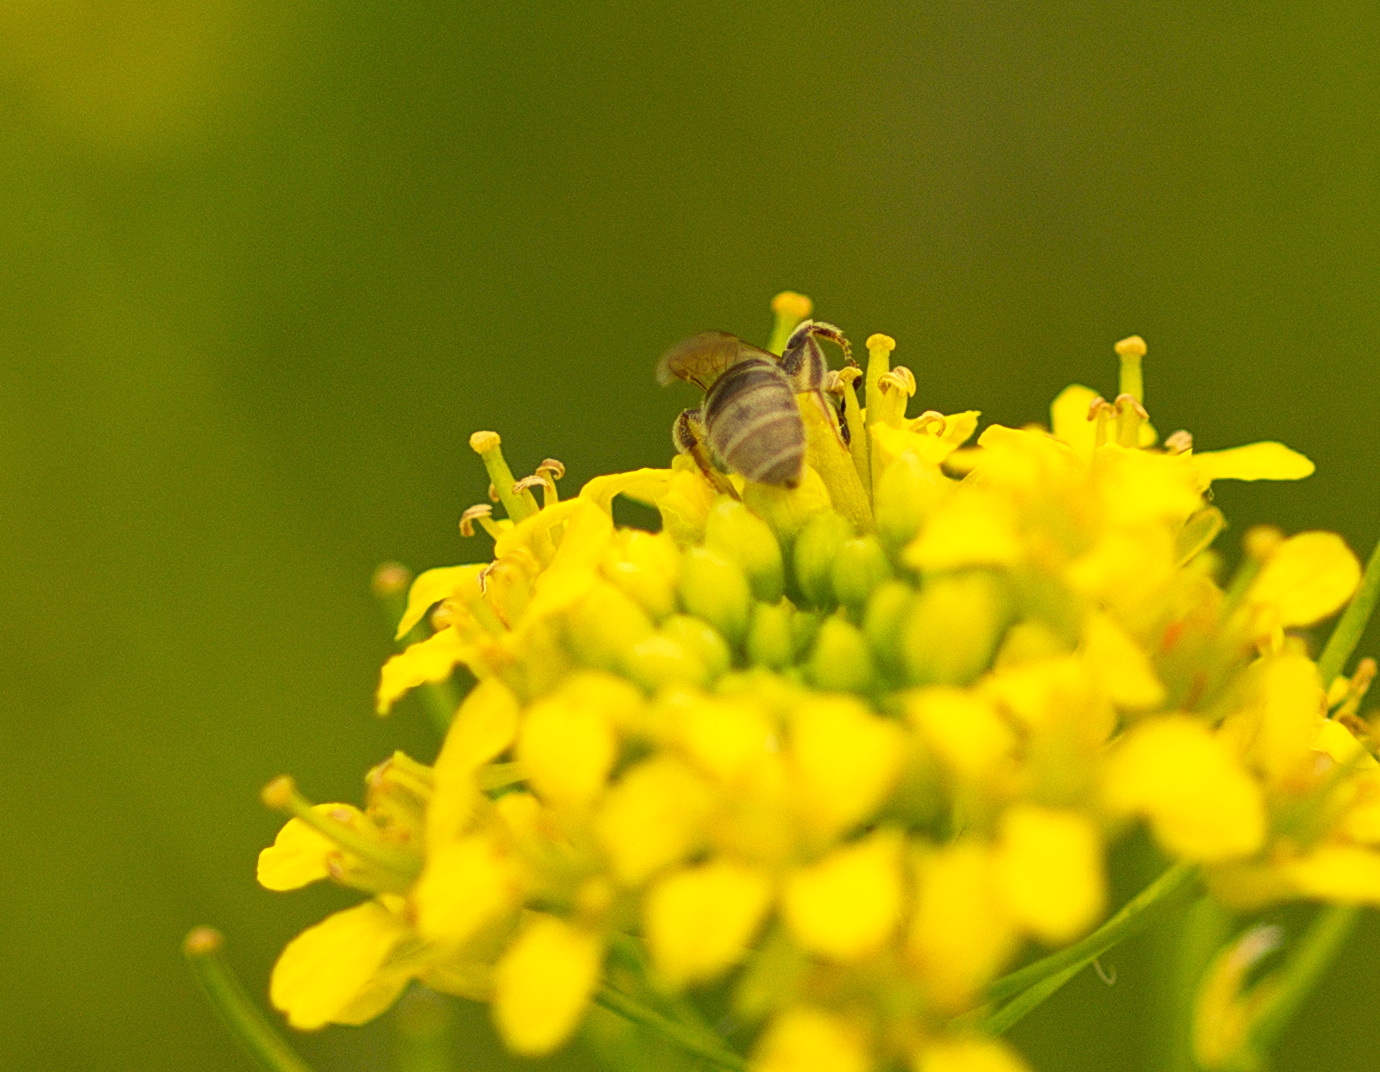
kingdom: Animalia
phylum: Arthropoda
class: Insecta
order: Hymenoptera
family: Halictidae
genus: Dialictus
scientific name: Dialictus
